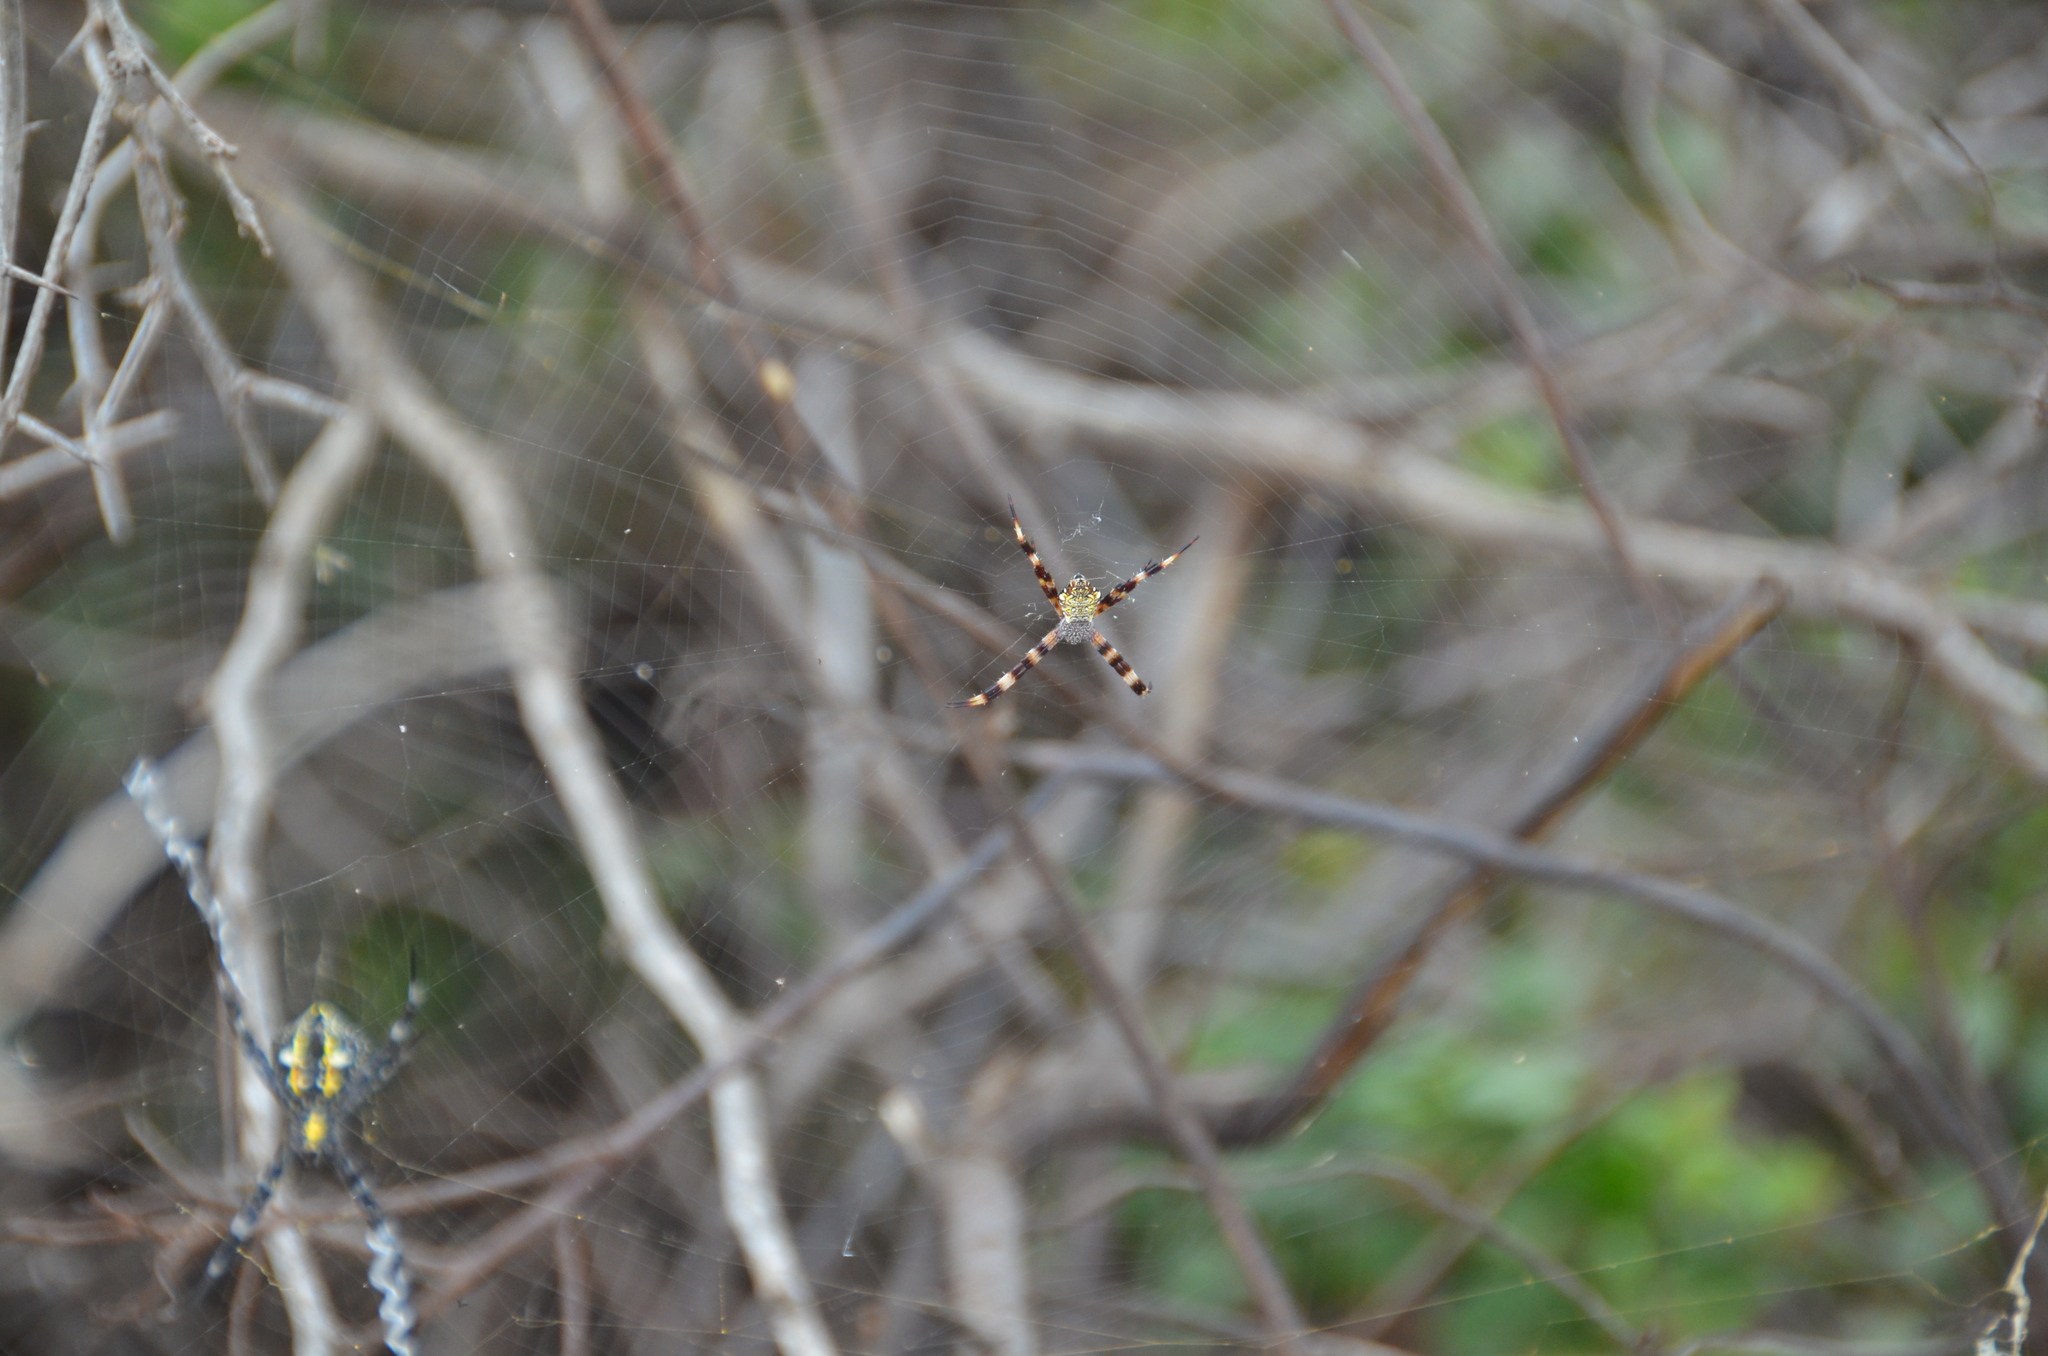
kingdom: Animalia
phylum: Arthropoda
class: Arachnida
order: Araneae
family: Araneidae
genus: Argiope
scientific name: Argiope appensa
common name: Garden spider
